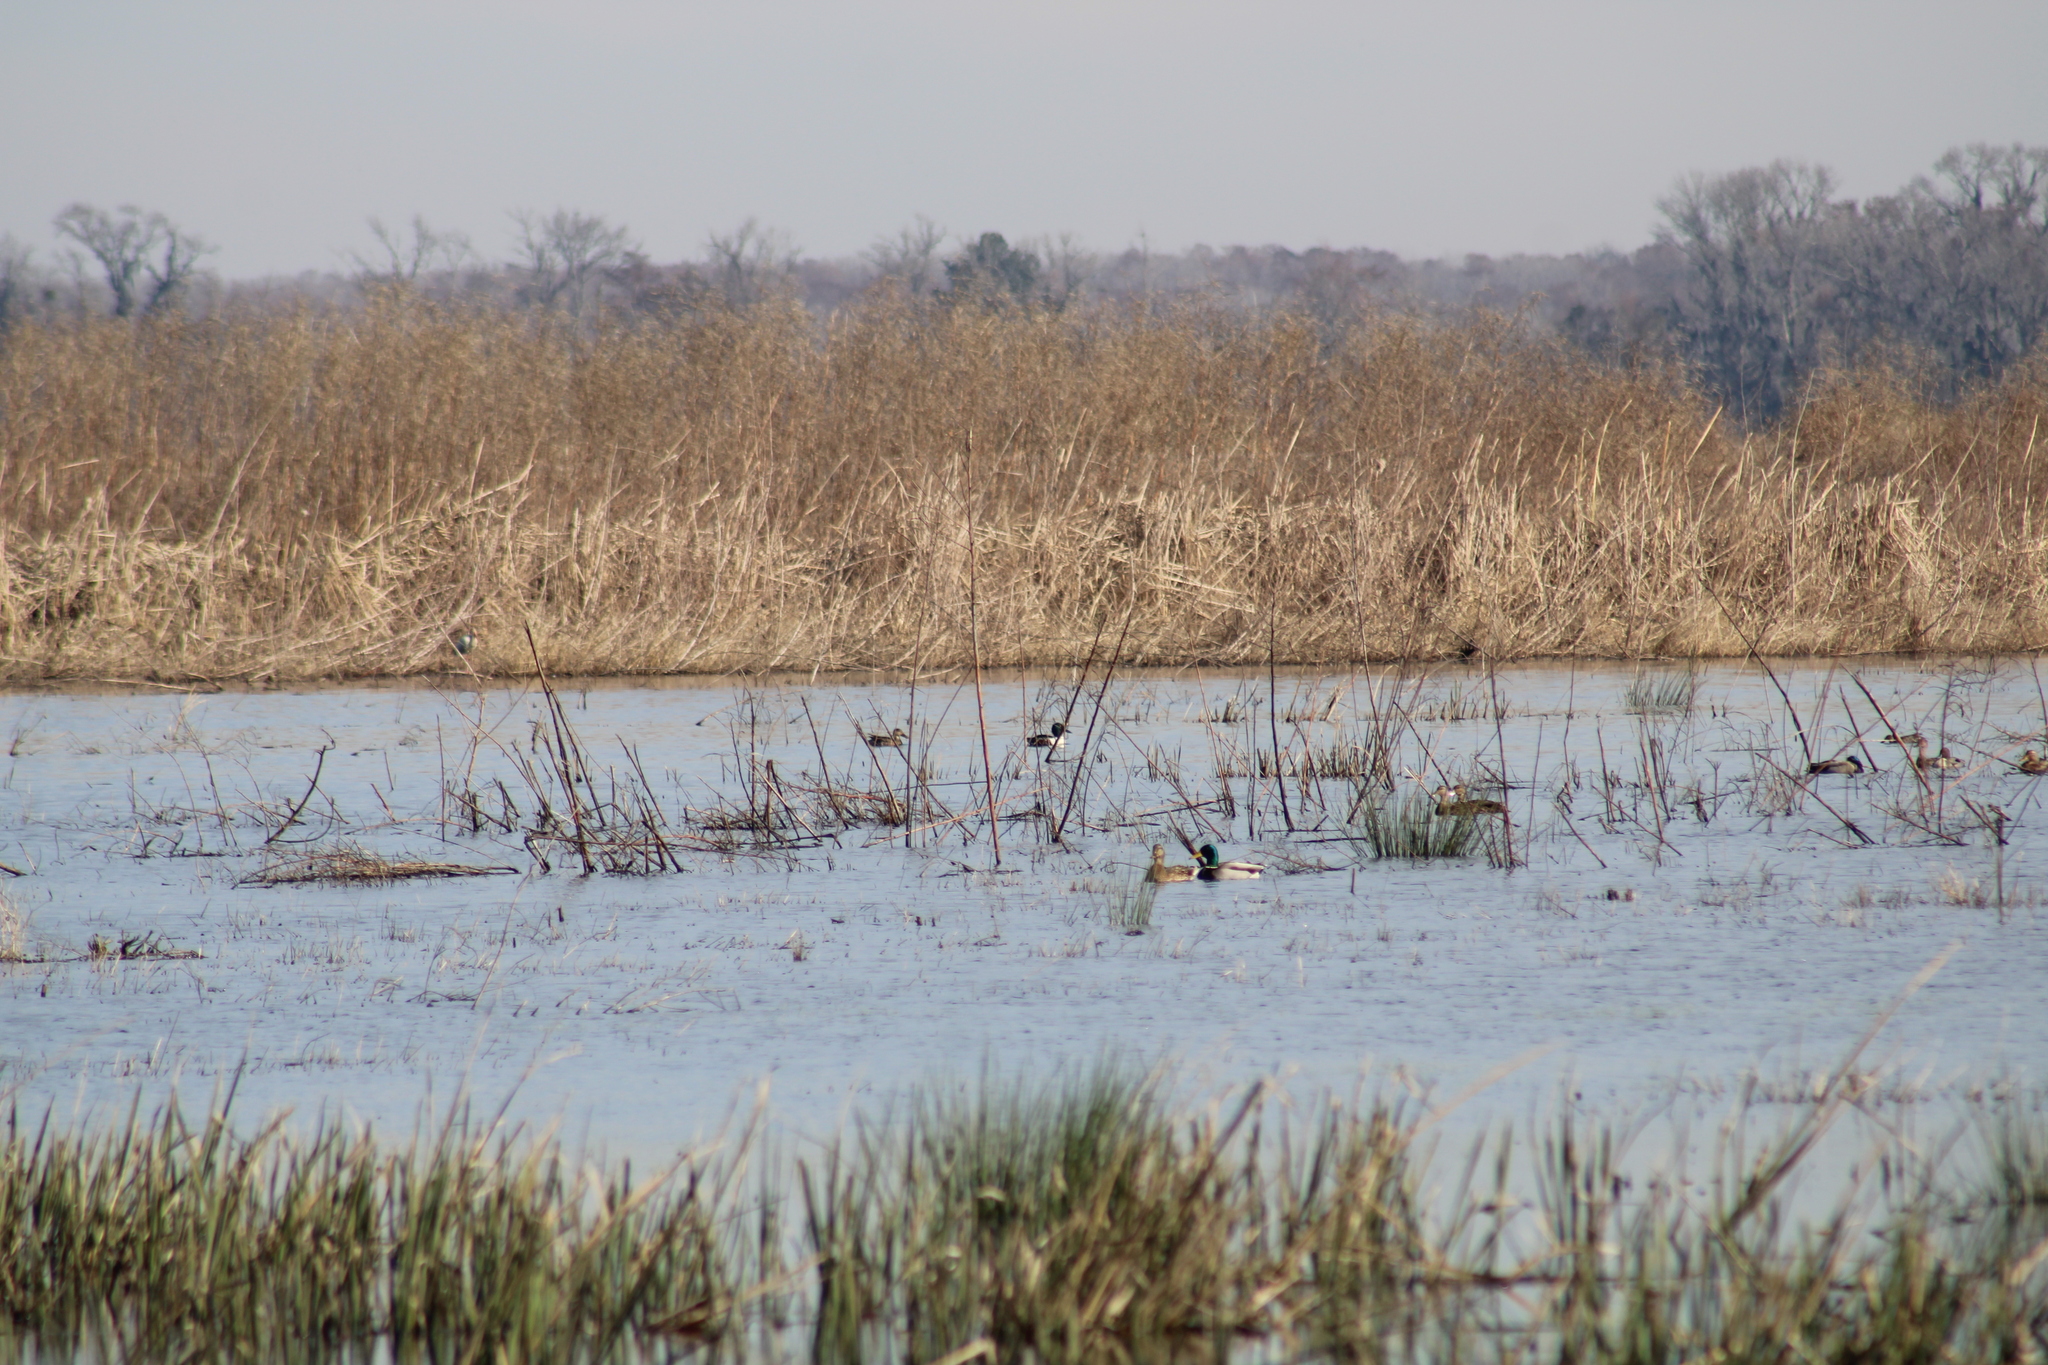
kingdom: Animalia
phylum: Chordata
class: Aves
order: Anseriformes
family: Anatidae
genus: Anas
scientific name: Anas platyrhynchos
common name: Mallard
